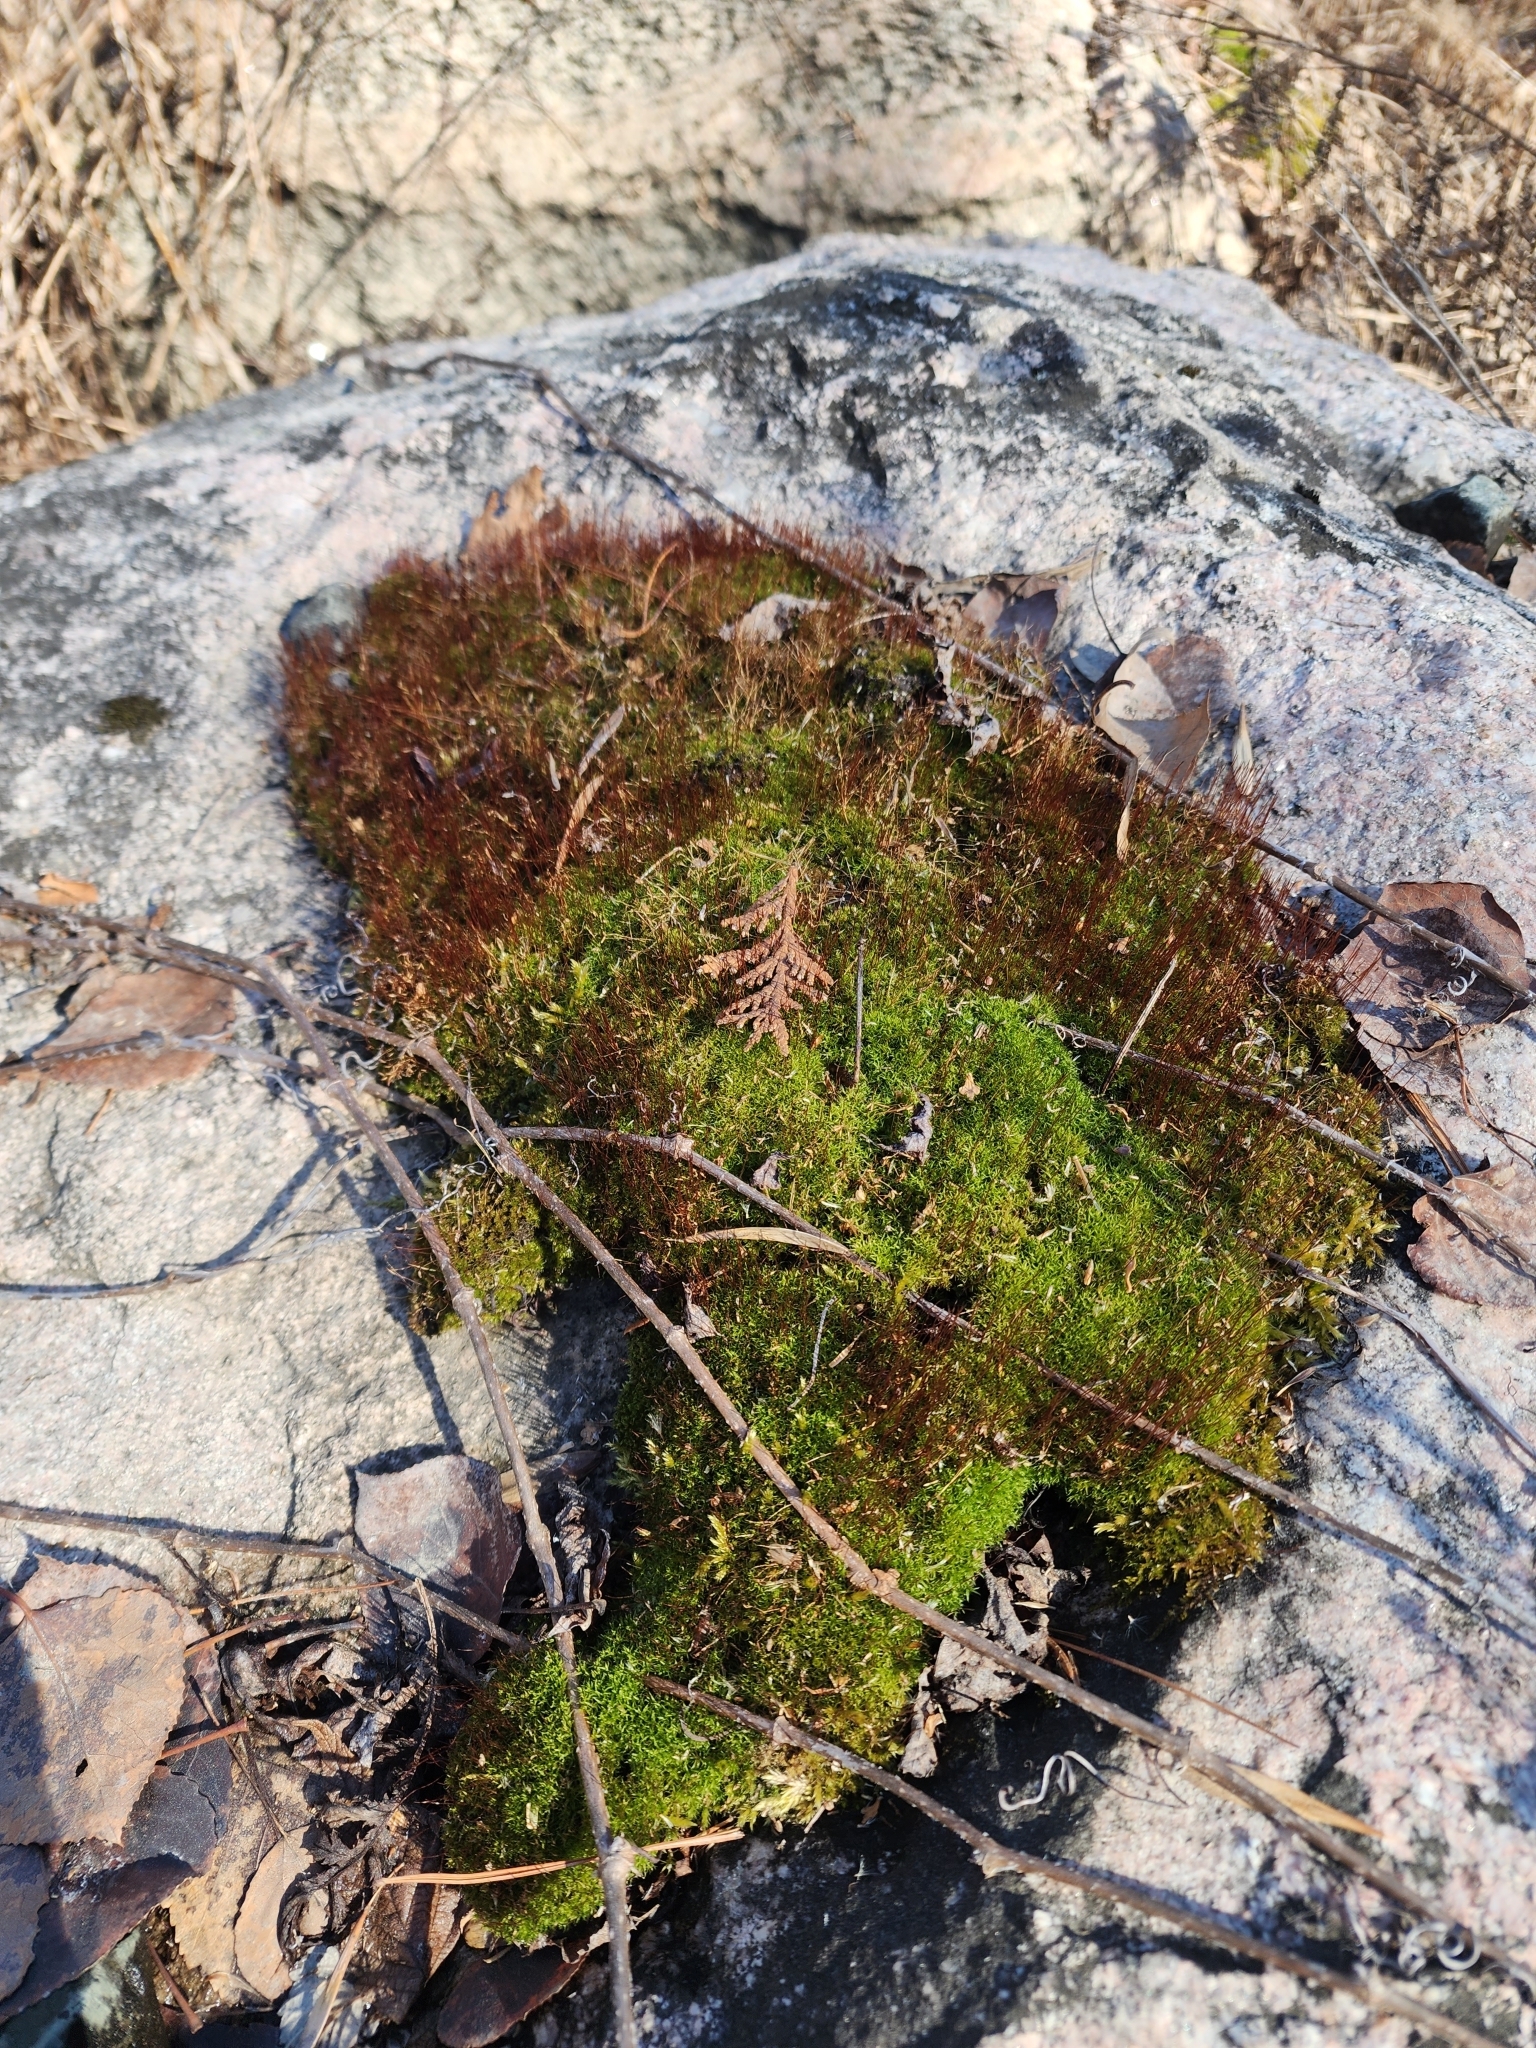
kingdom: Plantae
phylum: Bryophyta
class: Bryopsida
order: Dicranales
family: Ditrichaceae
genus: Ceratodon
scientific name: Ceratodon purpureus
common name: Redshank
